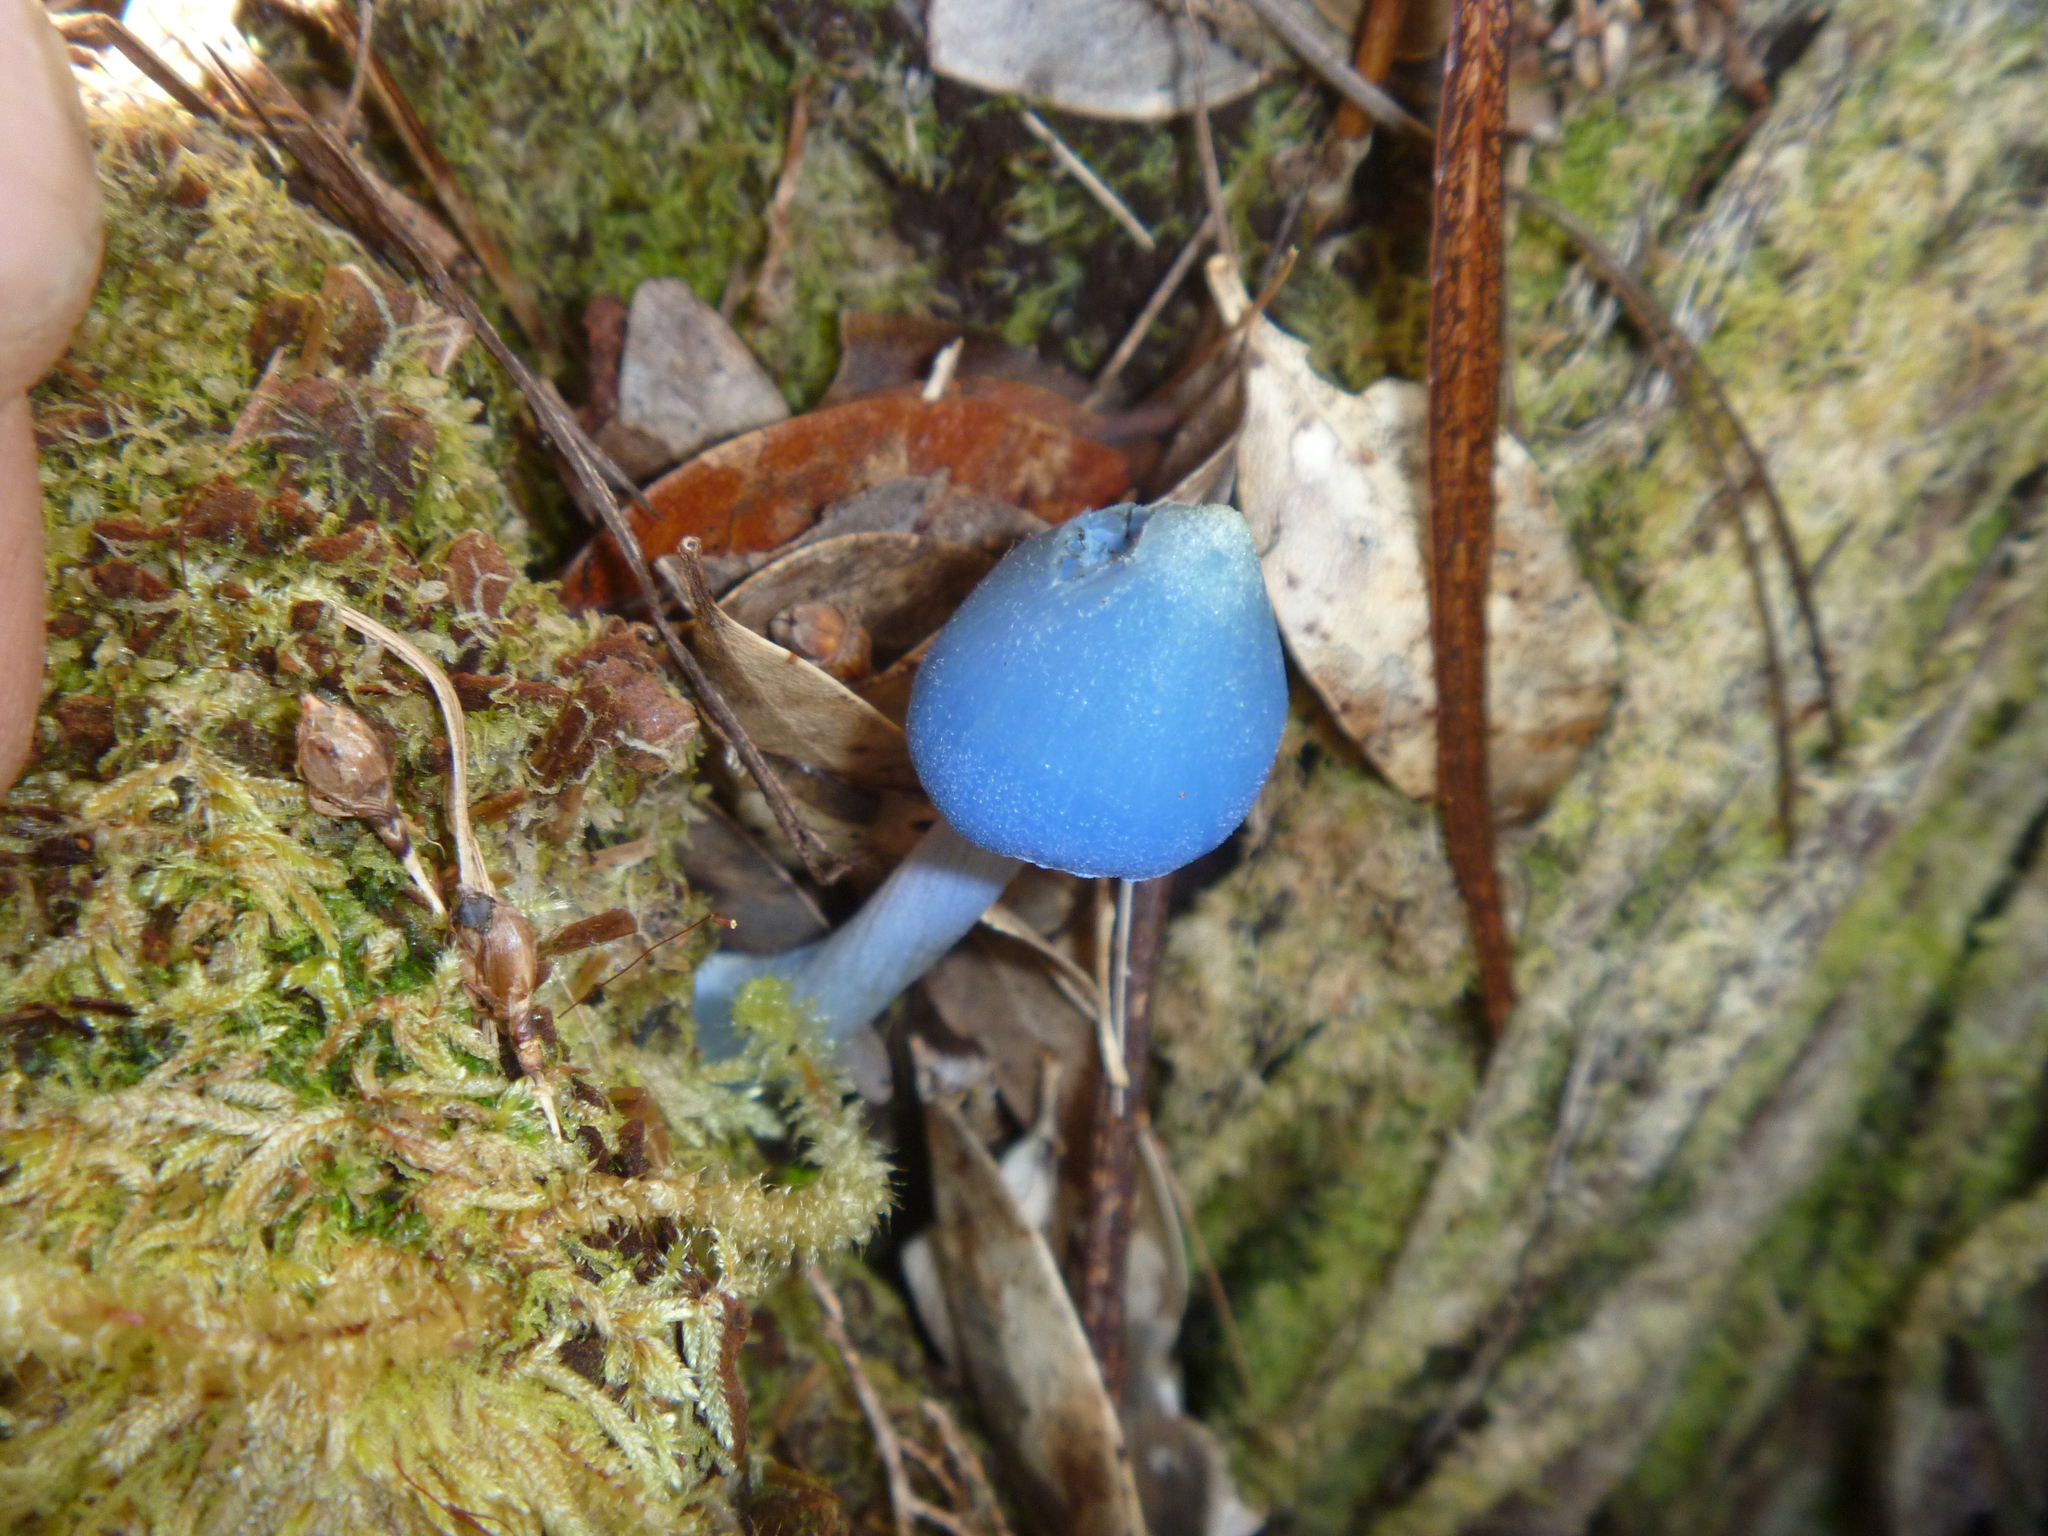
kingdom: Fungi
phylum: Basidiomycota
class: Agaricomycetes
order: Agaricales
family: Entolomataceae
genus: Entoloma
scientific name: Entoloma hochstetteri
